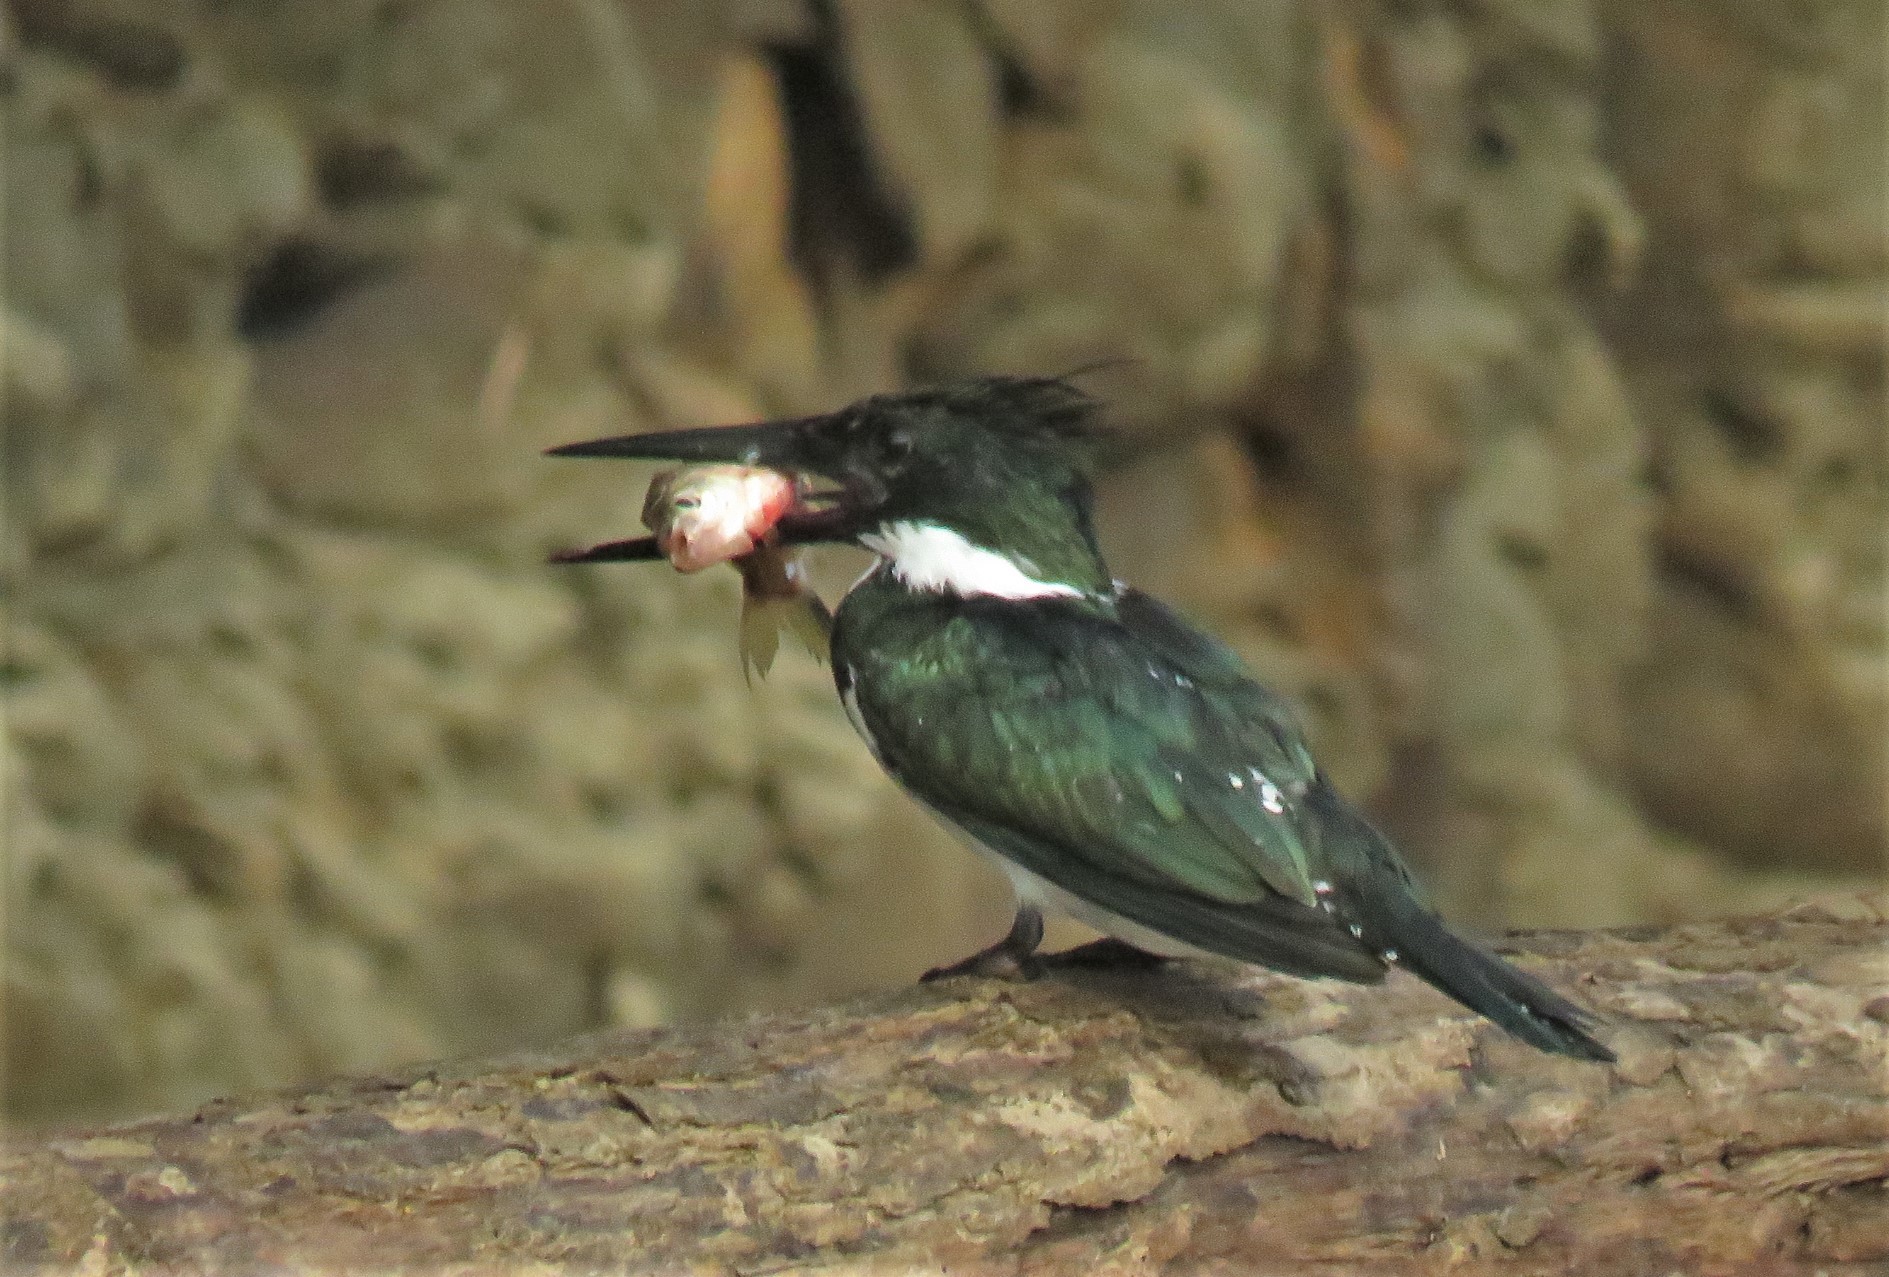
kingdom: Animalia
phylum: Chordata
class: Aves
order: Coraciiformes
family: Alcedinidae
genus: Chloroceryle
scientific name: Chloroceryle amazona
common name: Amazon kingfisher
